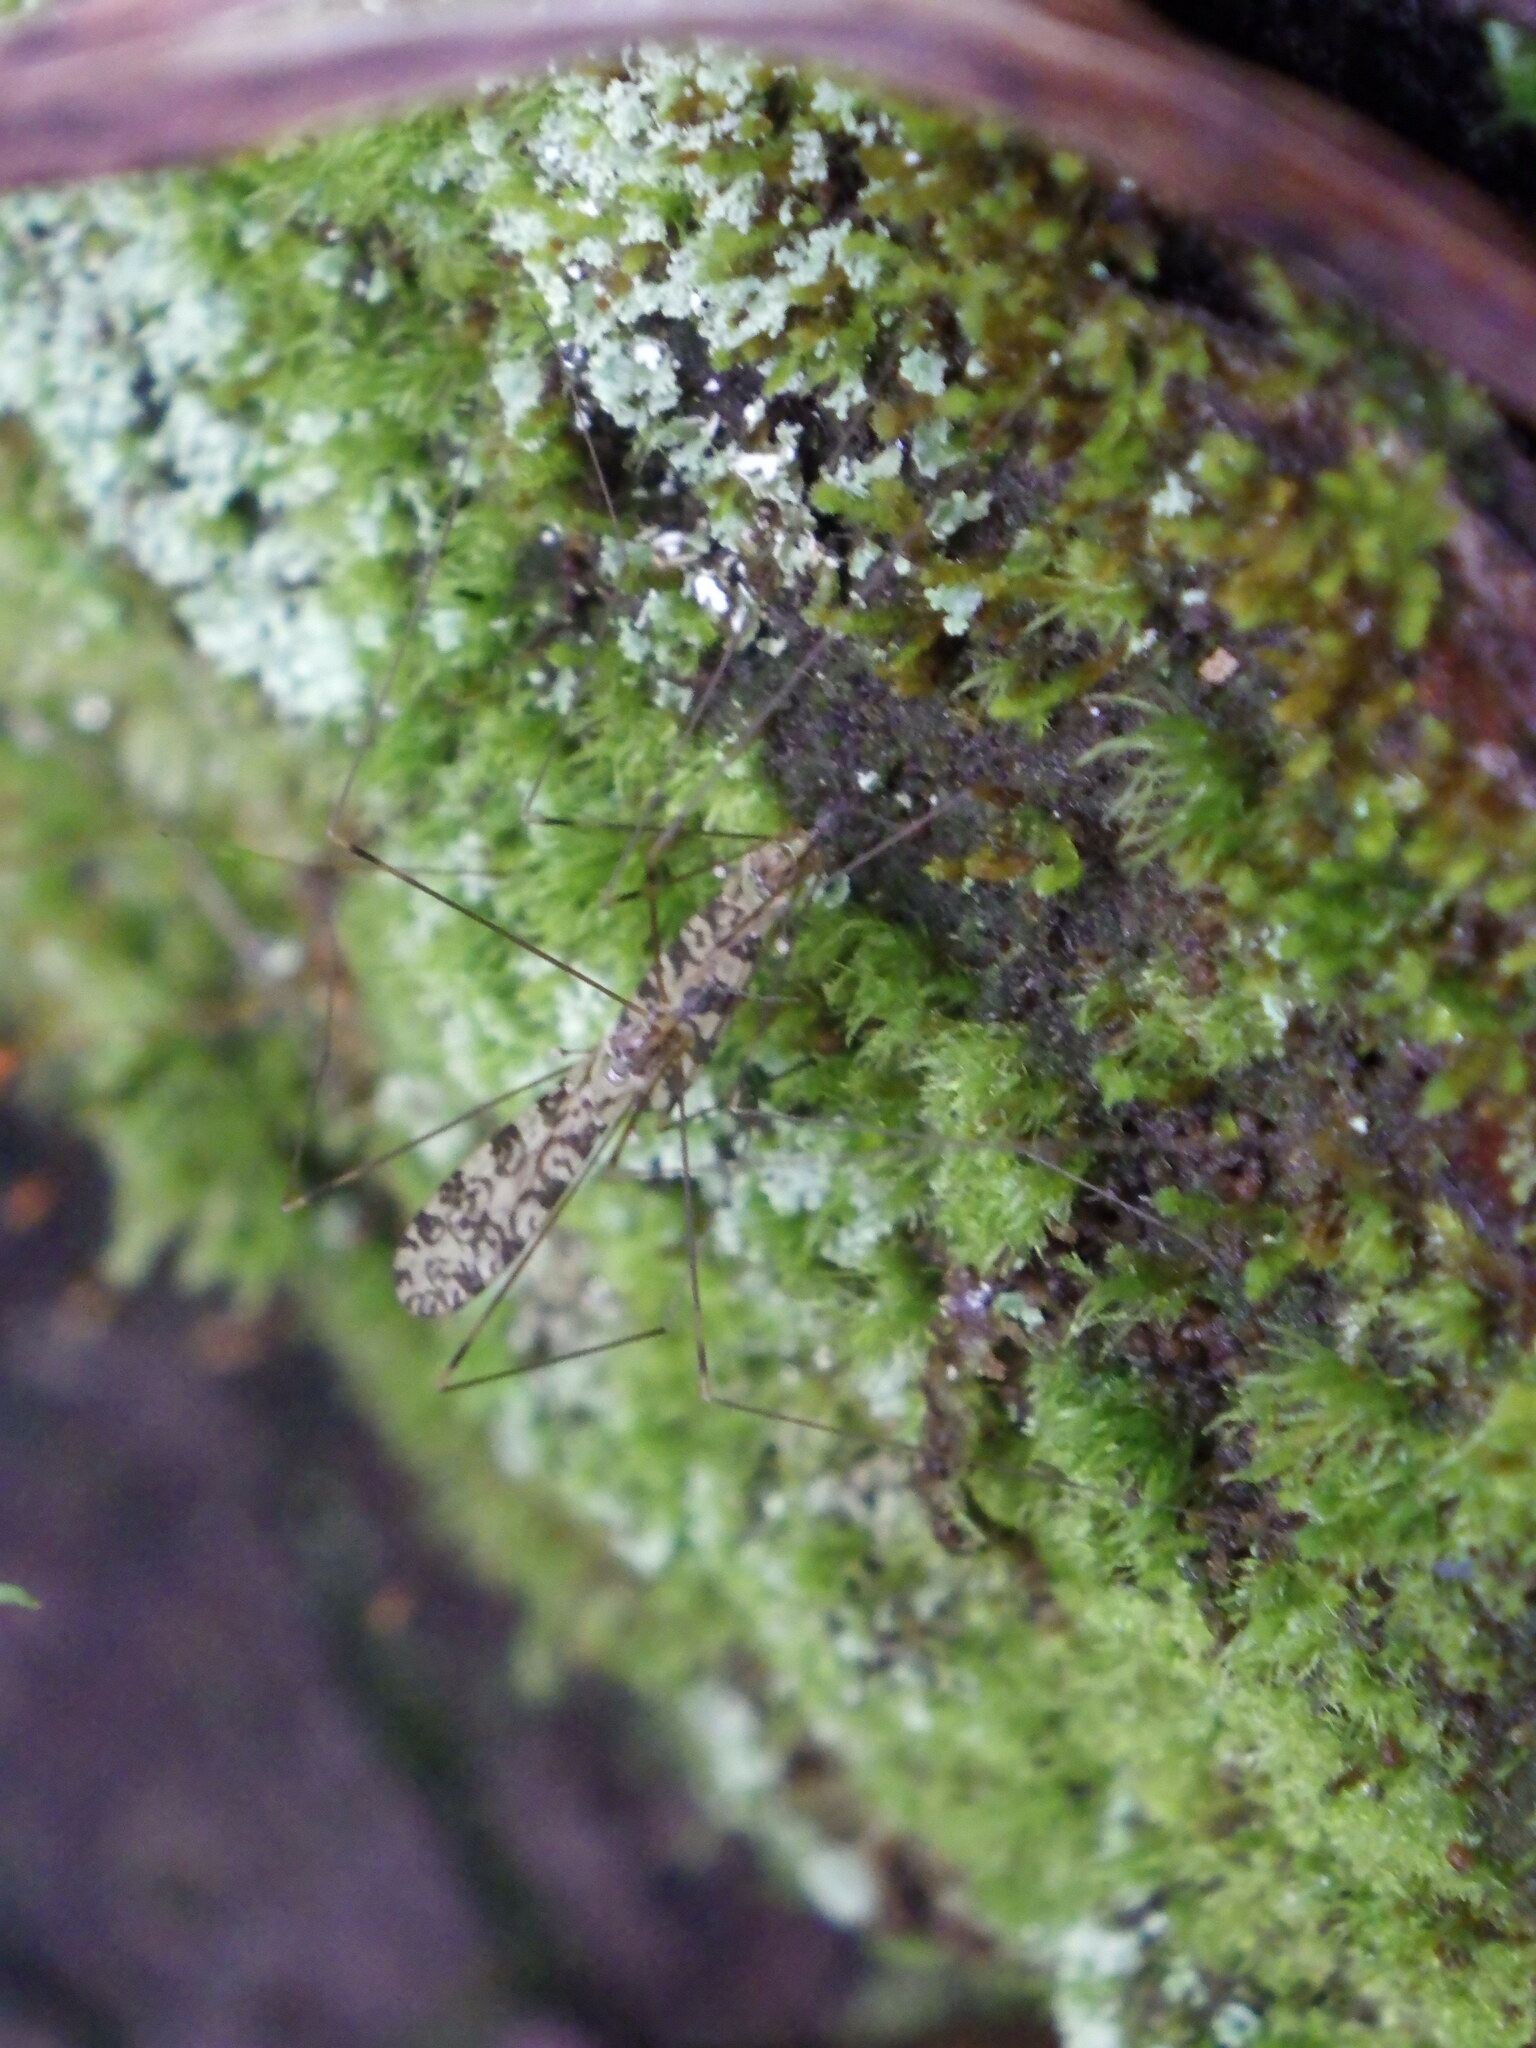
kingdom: Animalia
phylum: Arthropoda
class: Insecta
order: Diptera
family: Limoniidae
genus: Limonia
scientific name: Limonia annulata
